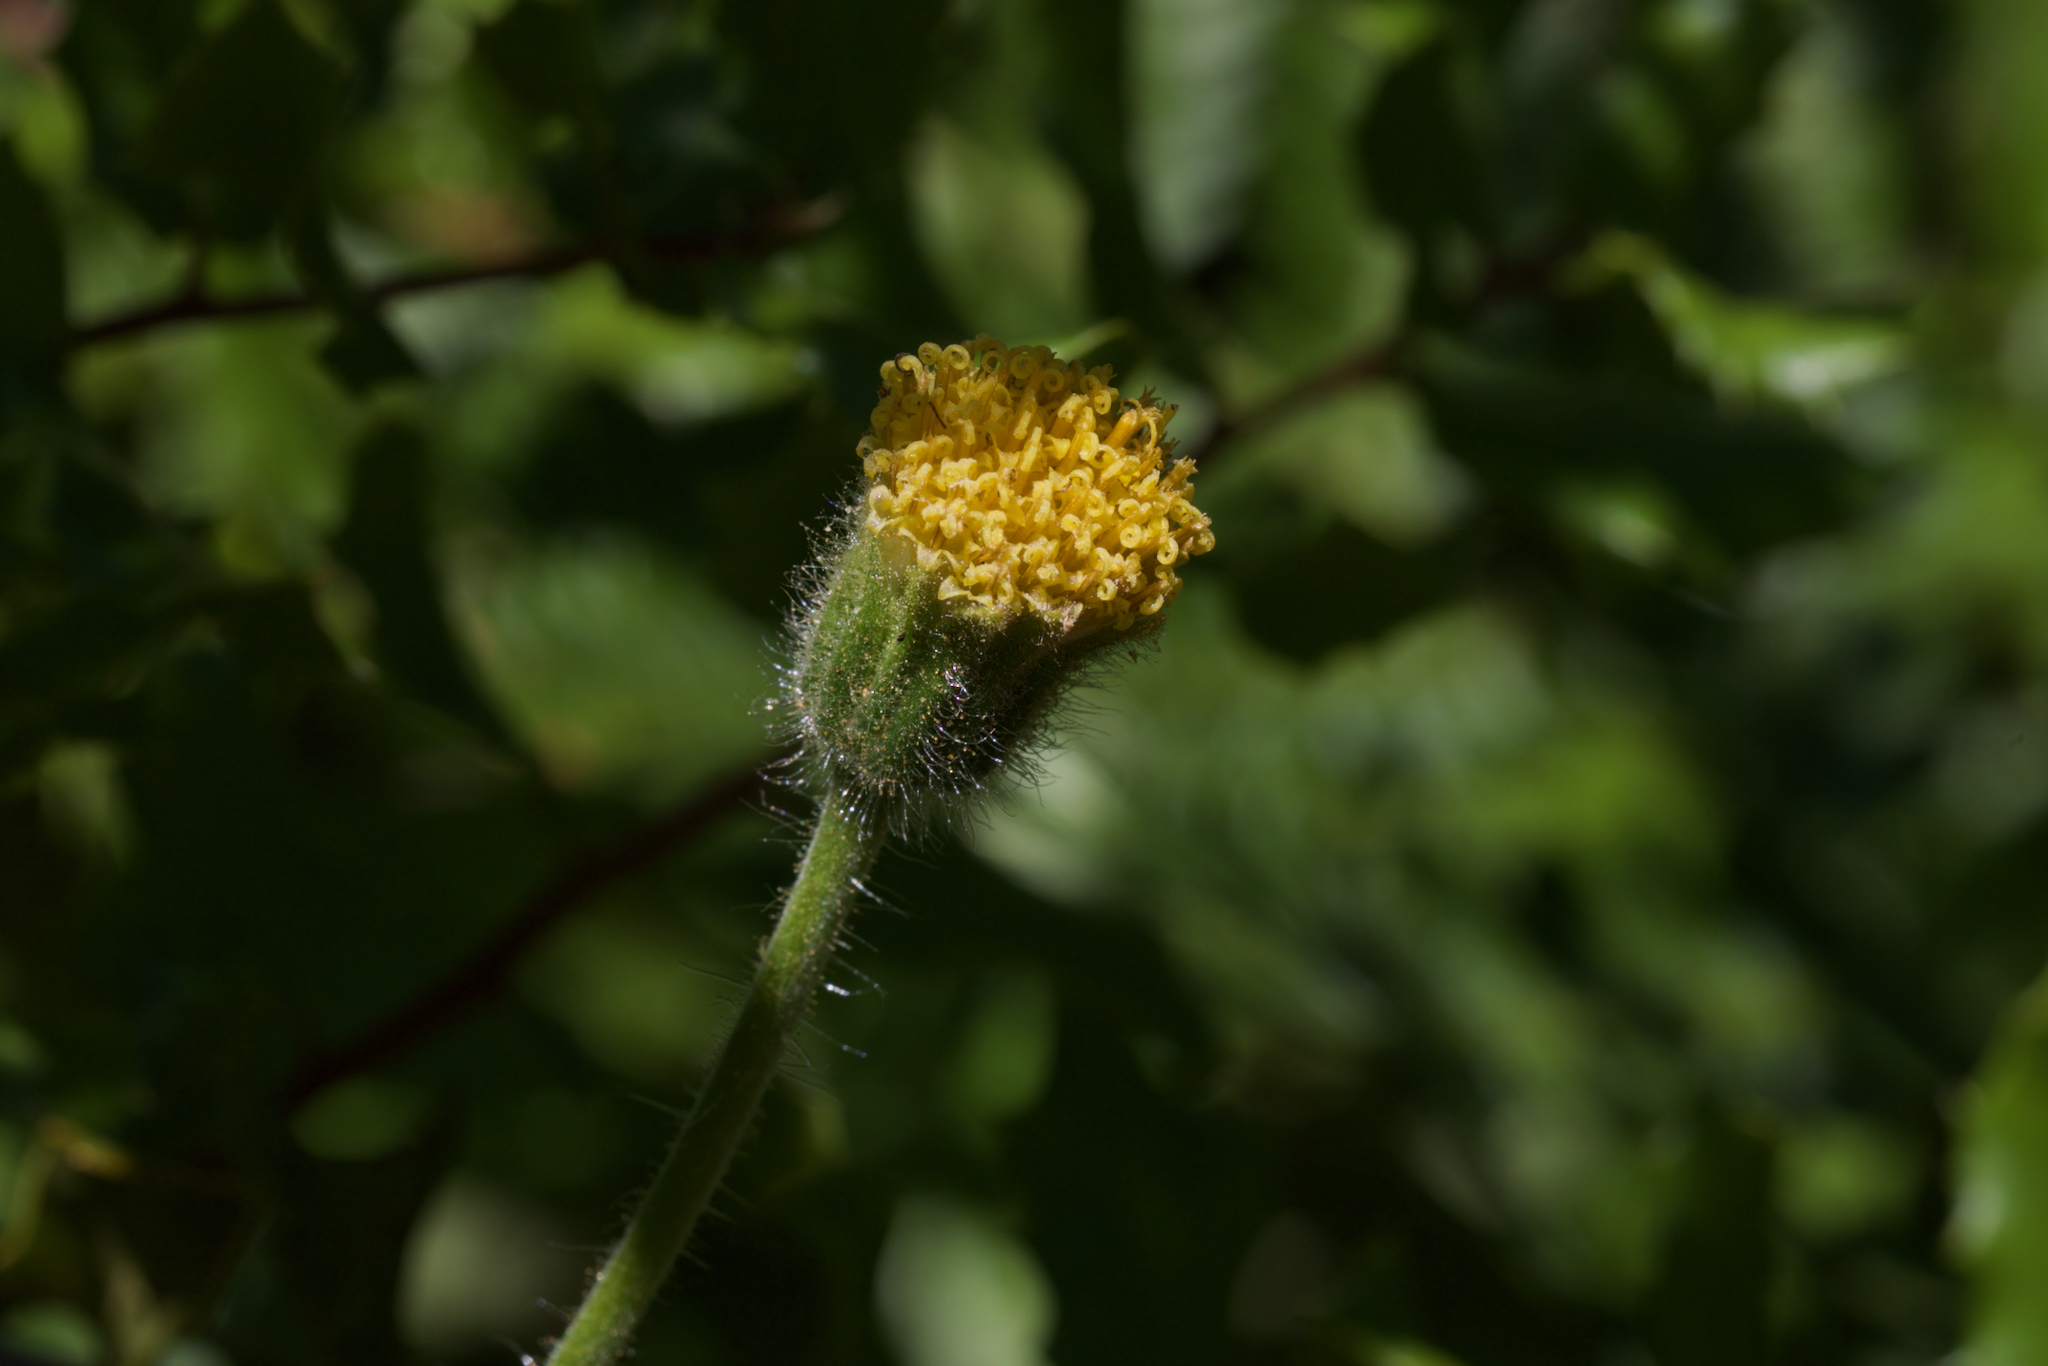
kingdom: Plantae
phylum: Tracheophyta
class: Magnoliopsida
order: Asterales
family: Asteraceae
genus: Arnica
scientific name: Arnica discoidea
